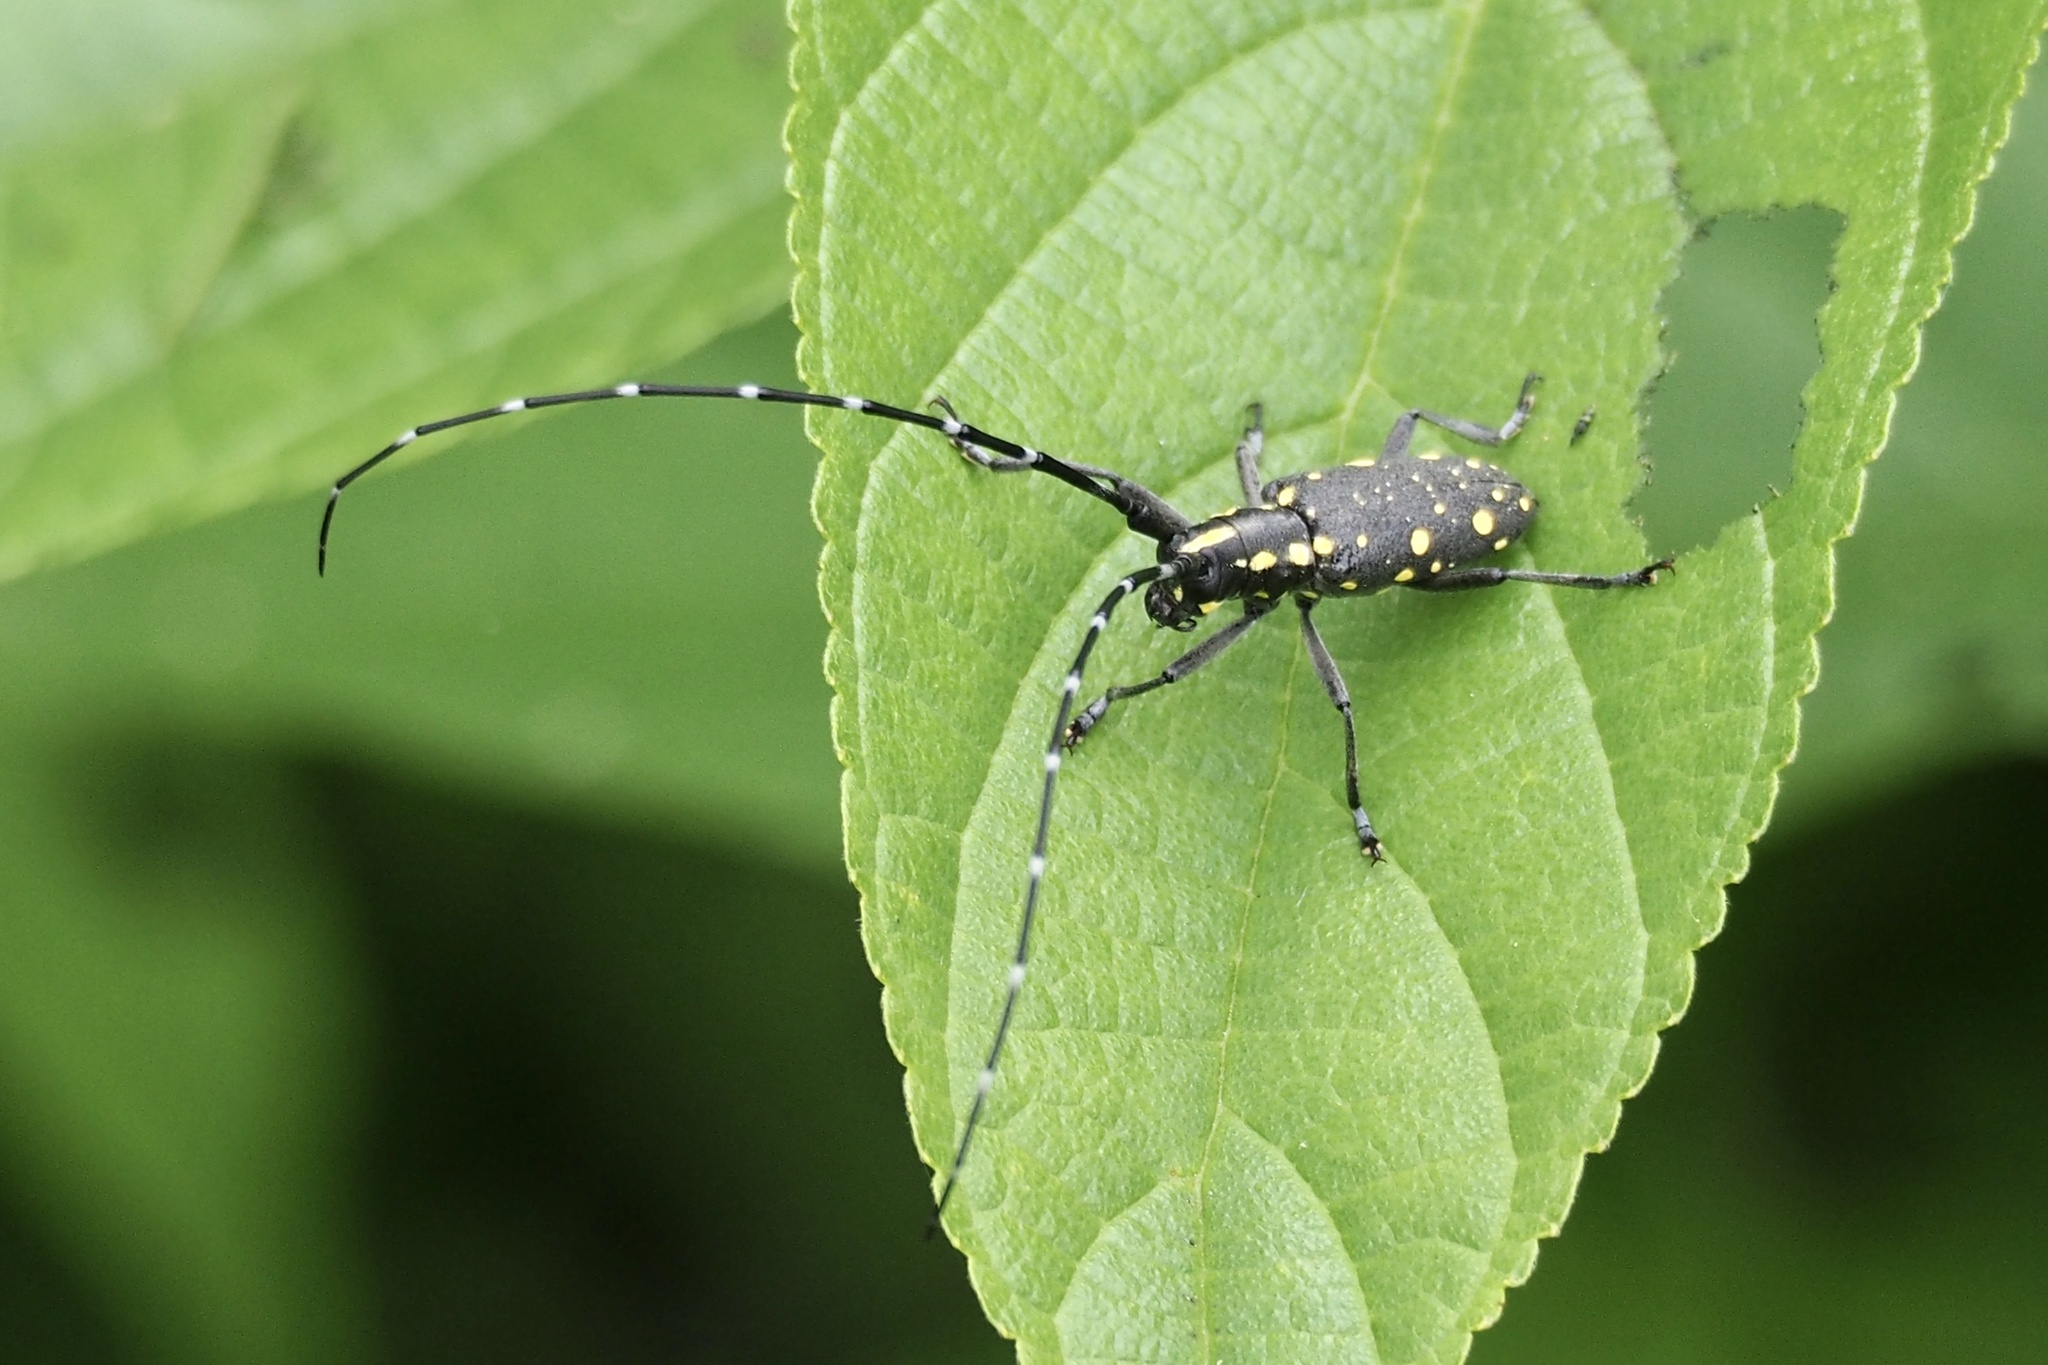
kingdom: Animalia
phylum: Arthropoda
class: Insecta
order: Coleoptera
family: Cerambycidae
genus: Psacothea
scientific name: Psacothea hilaris
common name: Yellow-spotted longicorn beetle
